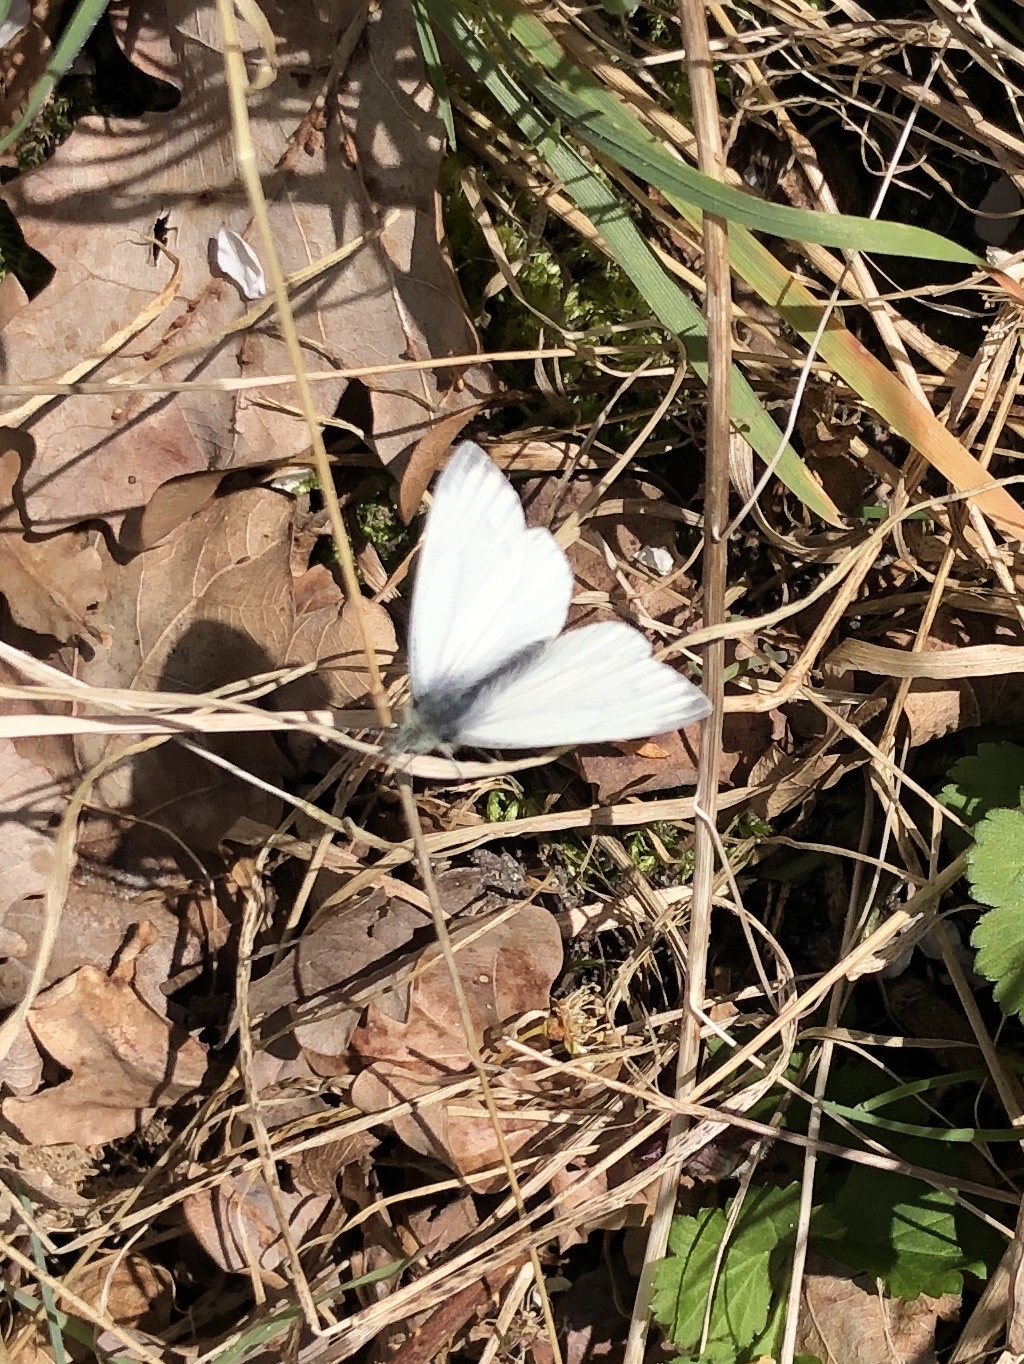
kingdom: Animalia
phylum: Arthropoda
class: Insecta
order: Lepidoptera
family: Pieridae
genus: Pieris
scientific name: Pieris napi
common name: Green-veined white
